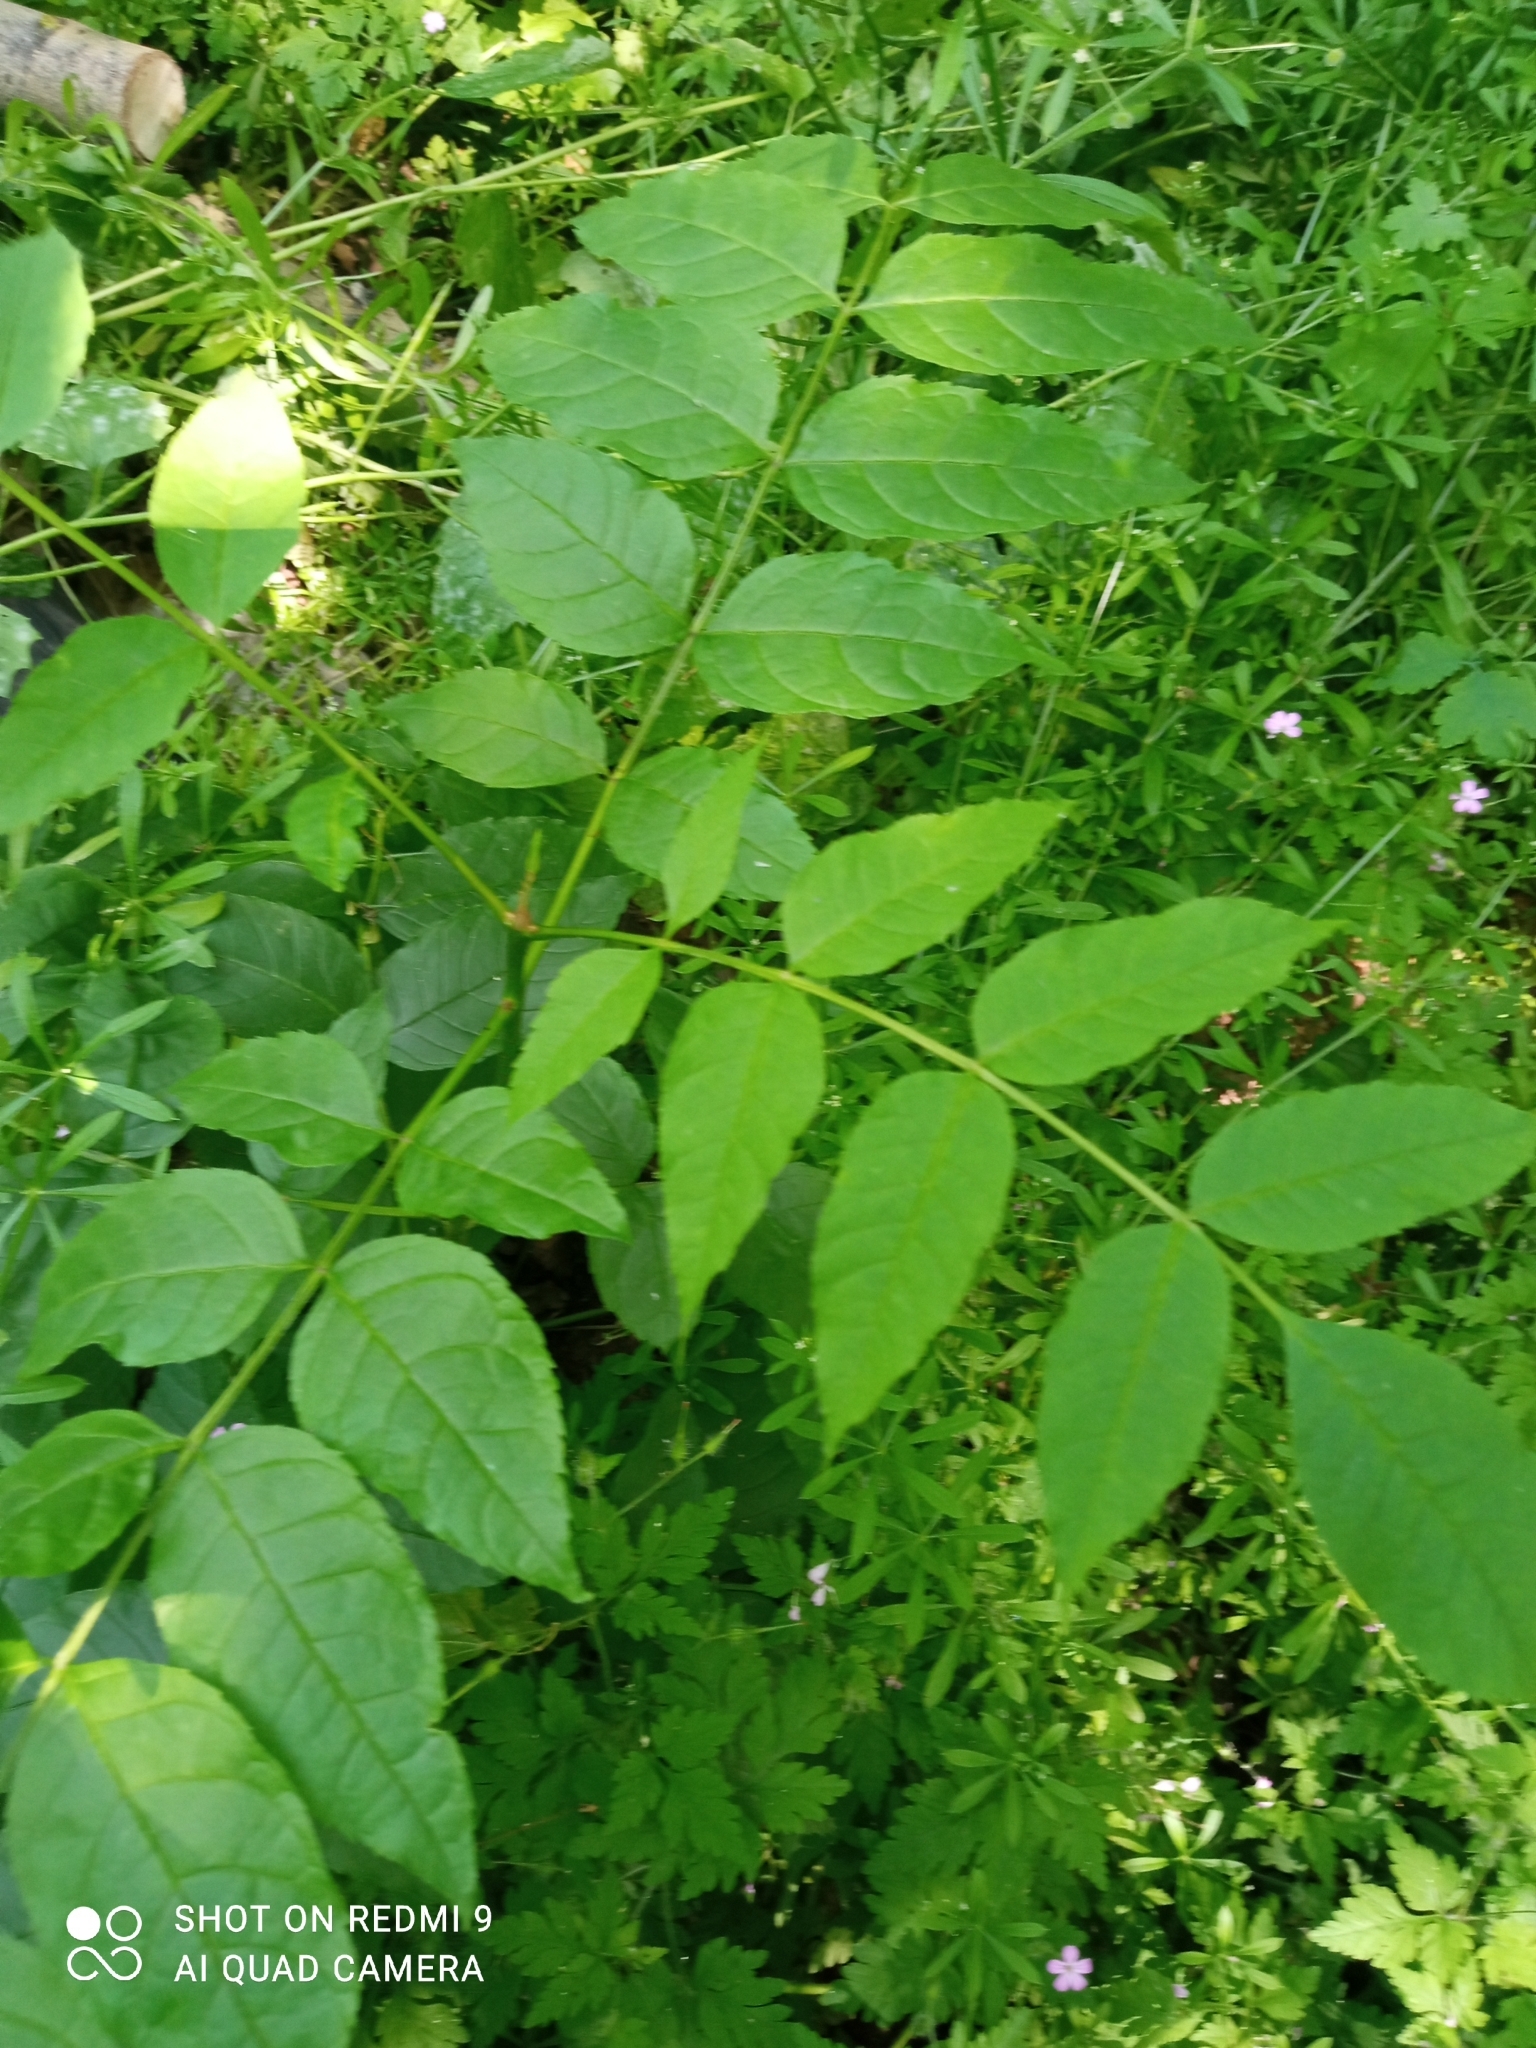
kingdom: Plantae
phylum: Tracheophyta
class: Magnoliopsida
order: Lamiales
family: Oleaceae
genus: Fraxinus
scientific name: Fraxinus excelsior
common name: European ash
